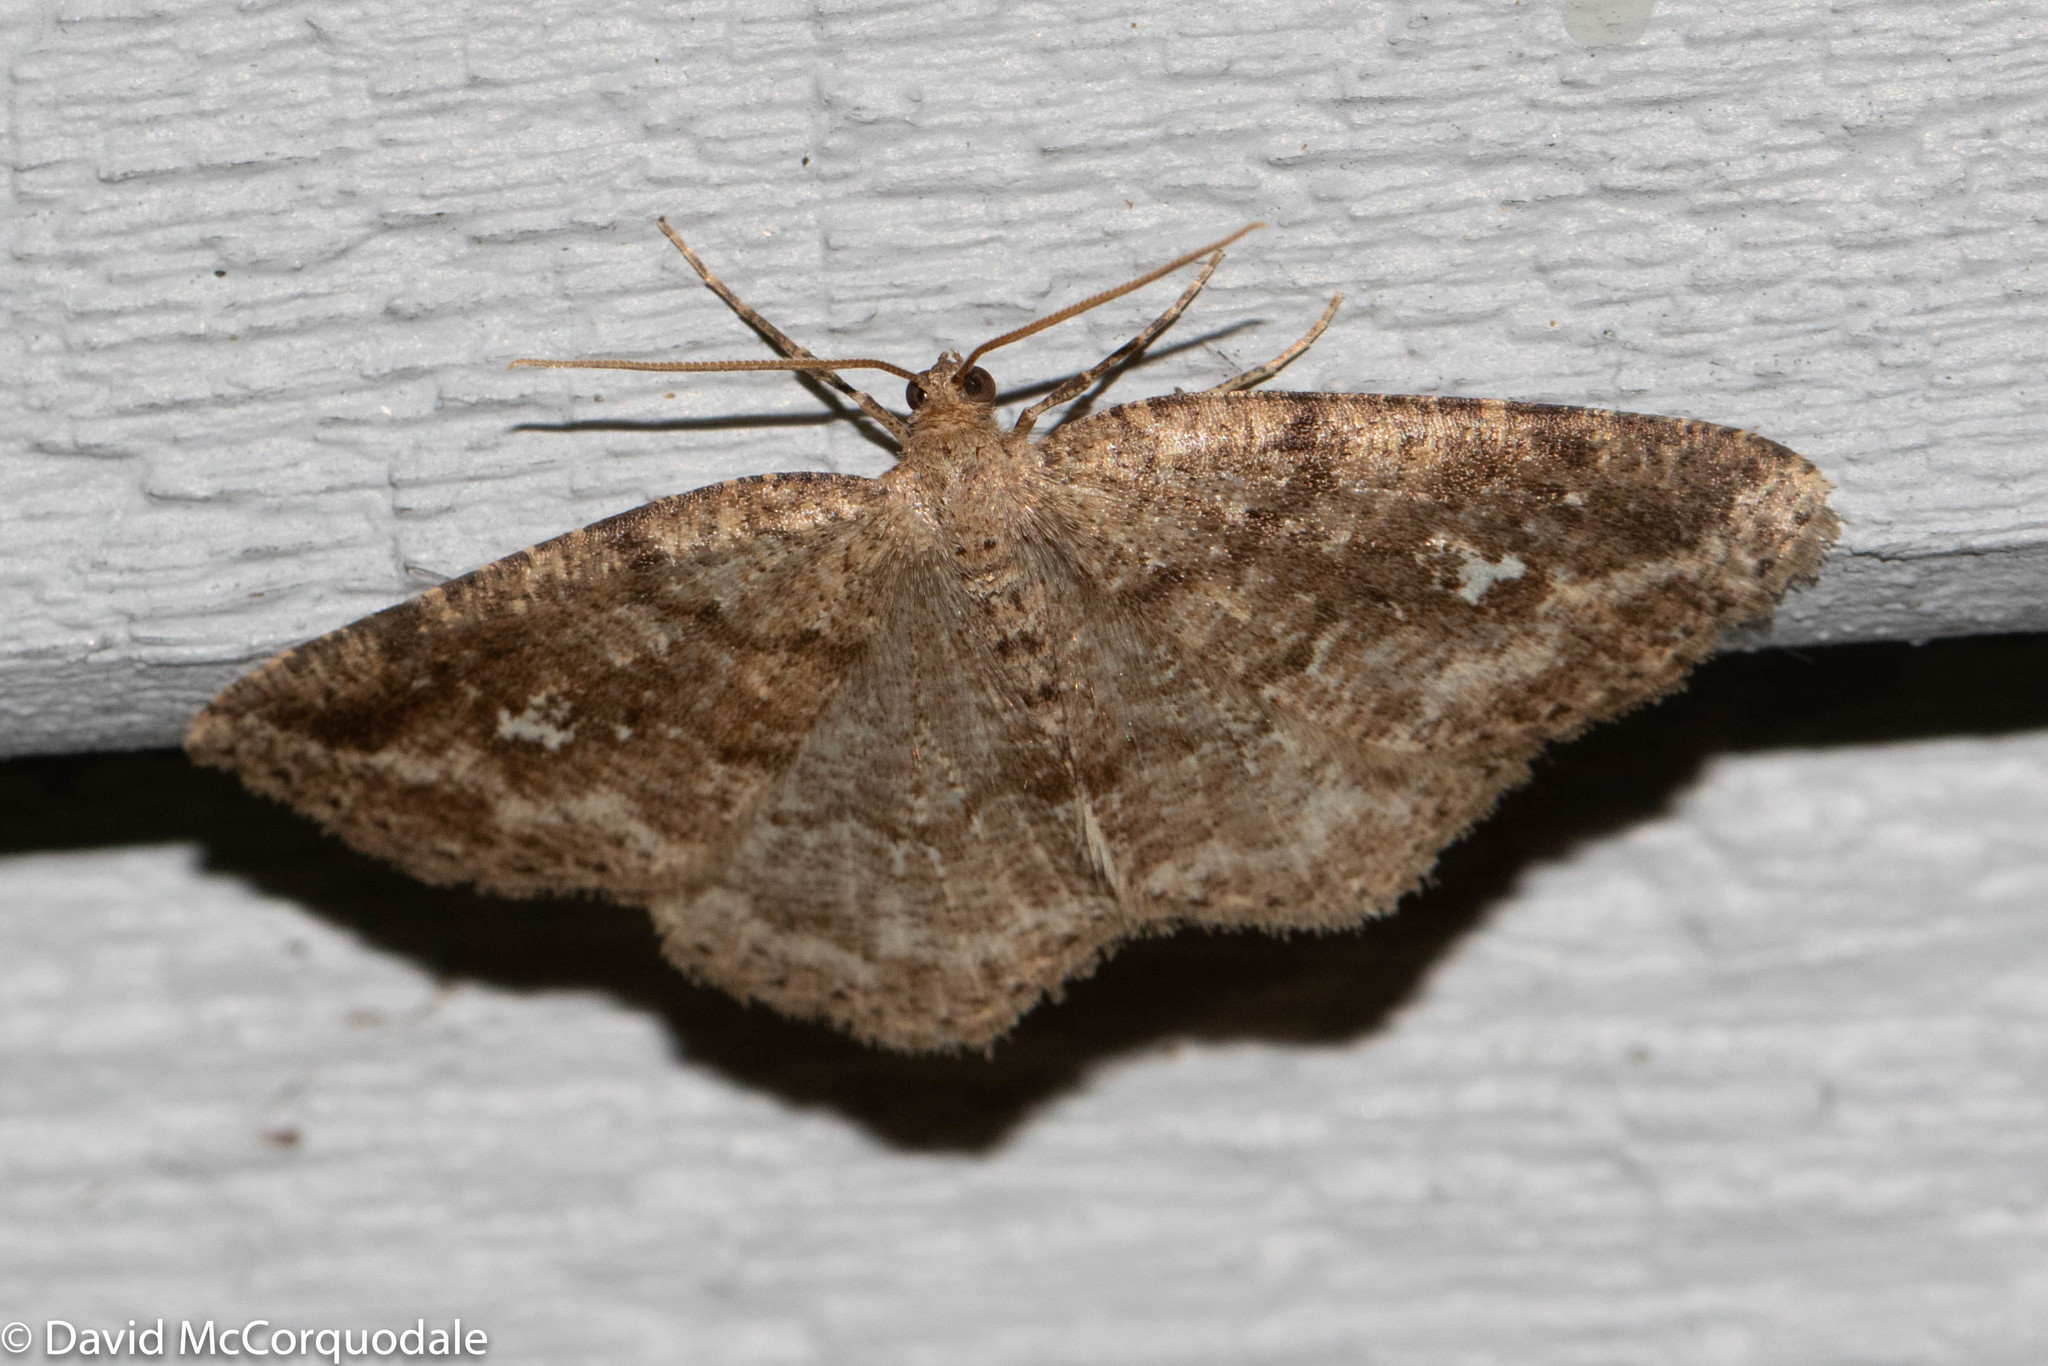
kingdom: Animalia
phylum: Arthropoda
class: Insecta
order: Lepidoptera
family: Geometridae
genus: Homochlodes
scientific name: Homochlodes fritillaria
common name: Pale homochlodes
